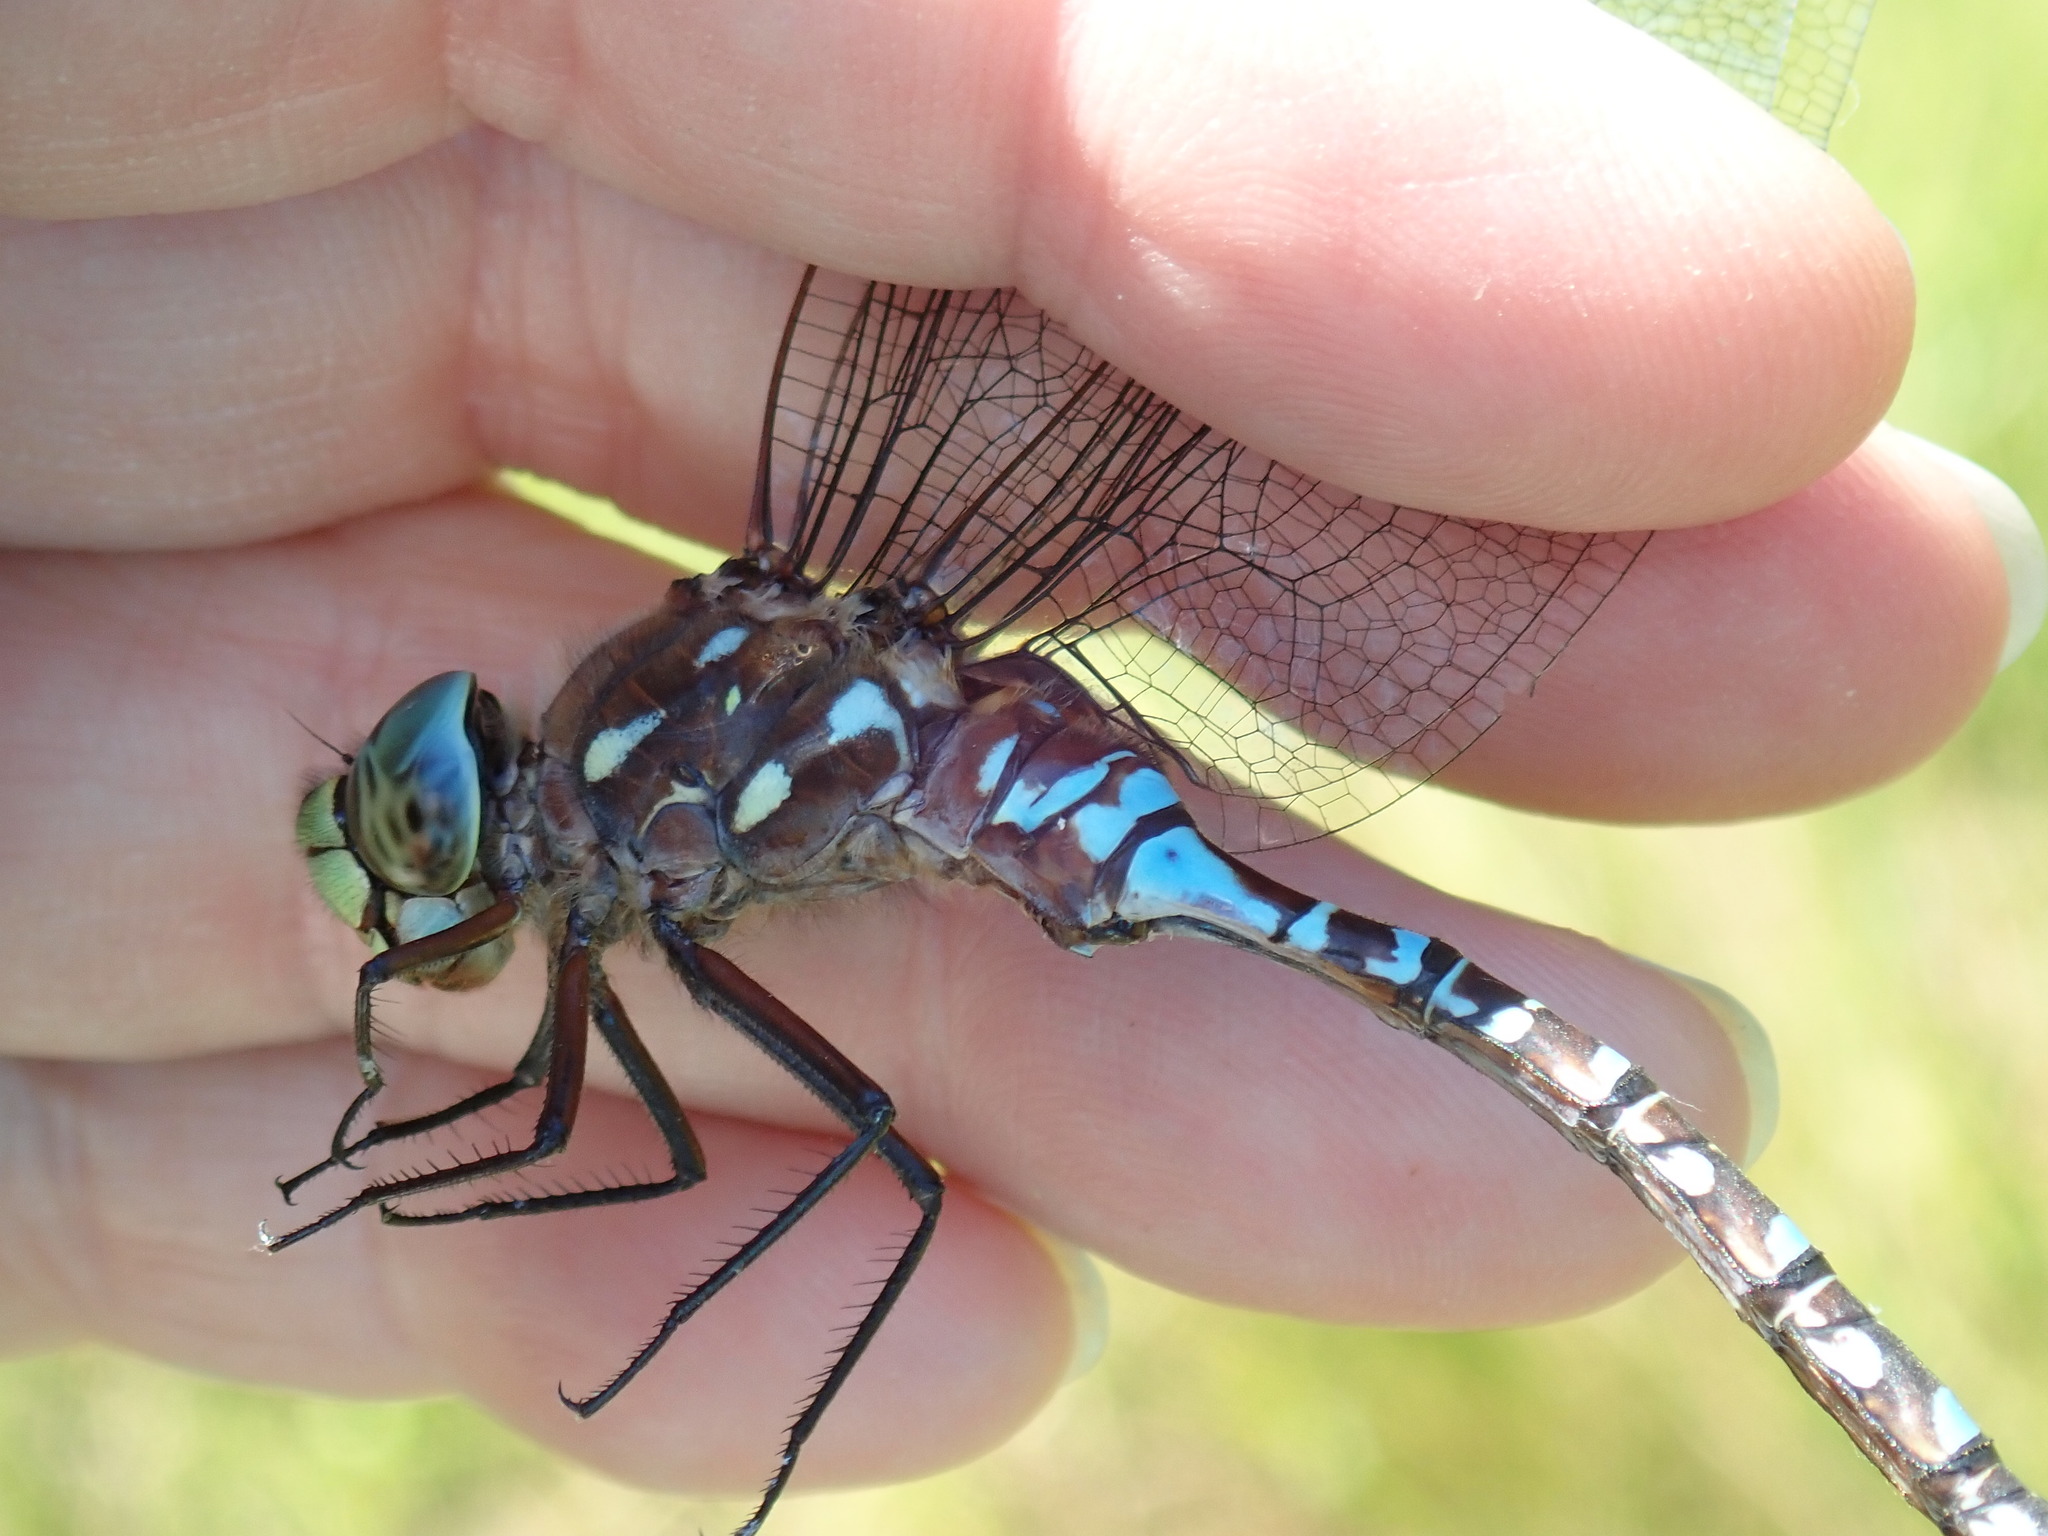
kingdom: Animalia
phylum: Arthropoda
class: Insecta
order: Odonata
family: Aeshnidae
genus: Aeshna
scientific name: Aeshna interrupta
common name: Variable darner
